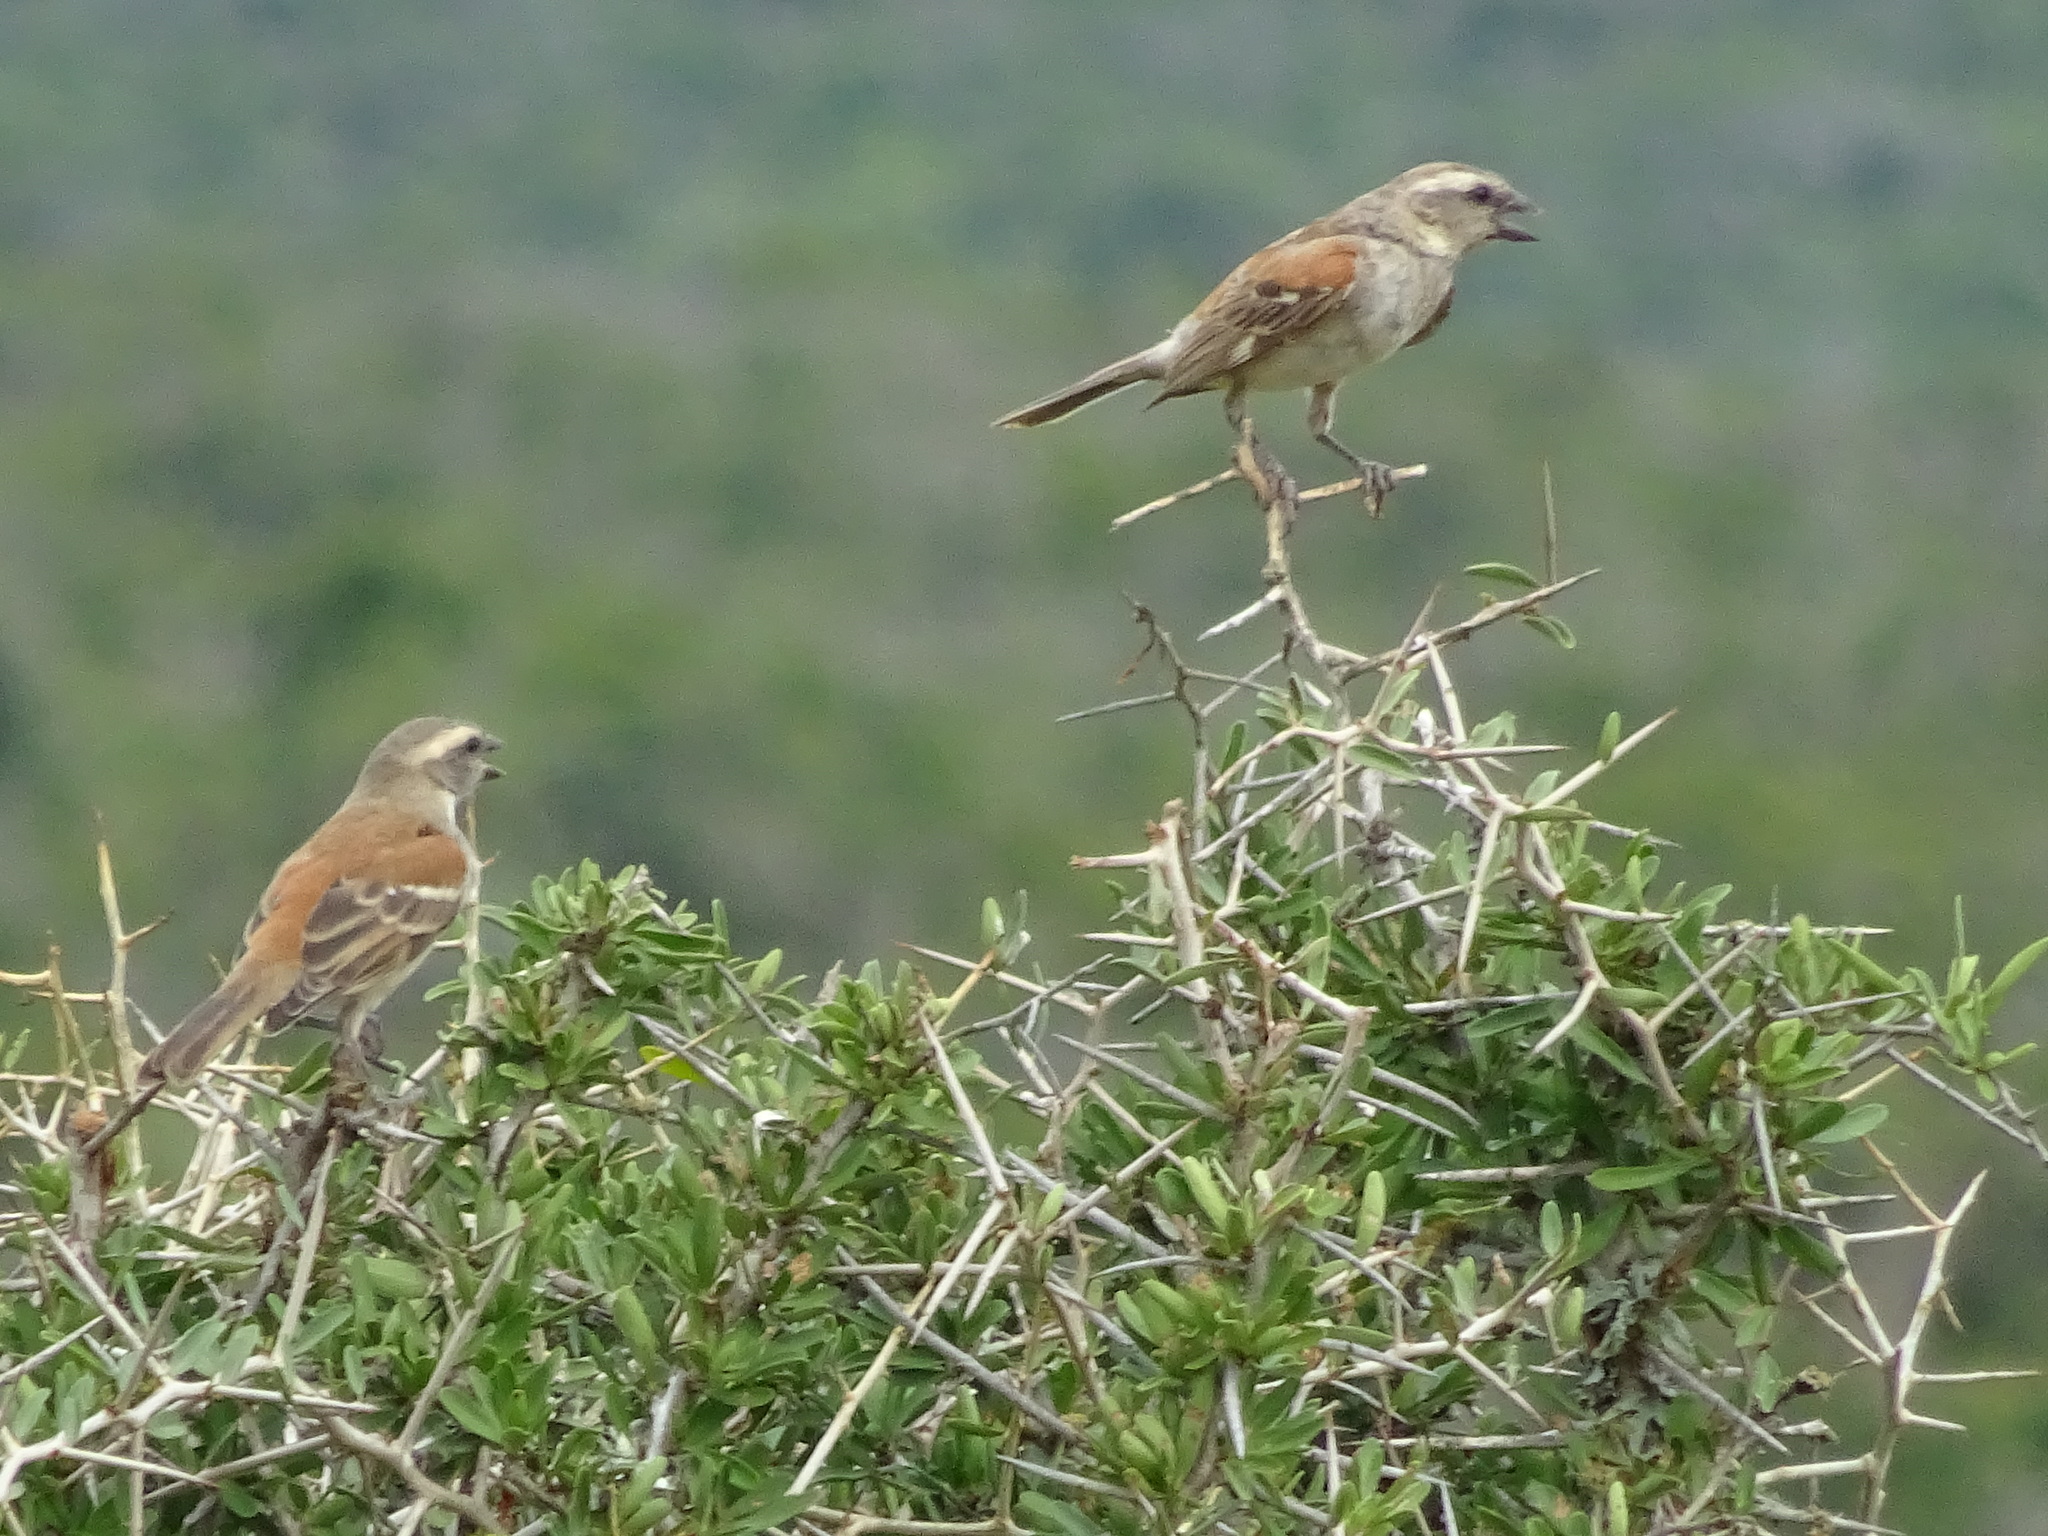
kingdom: Animalia
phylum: Chordata
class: Aves
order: Passeriformes
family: Passeridae
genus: Passer
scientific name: Passer melanurus
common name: Cape sparrow
